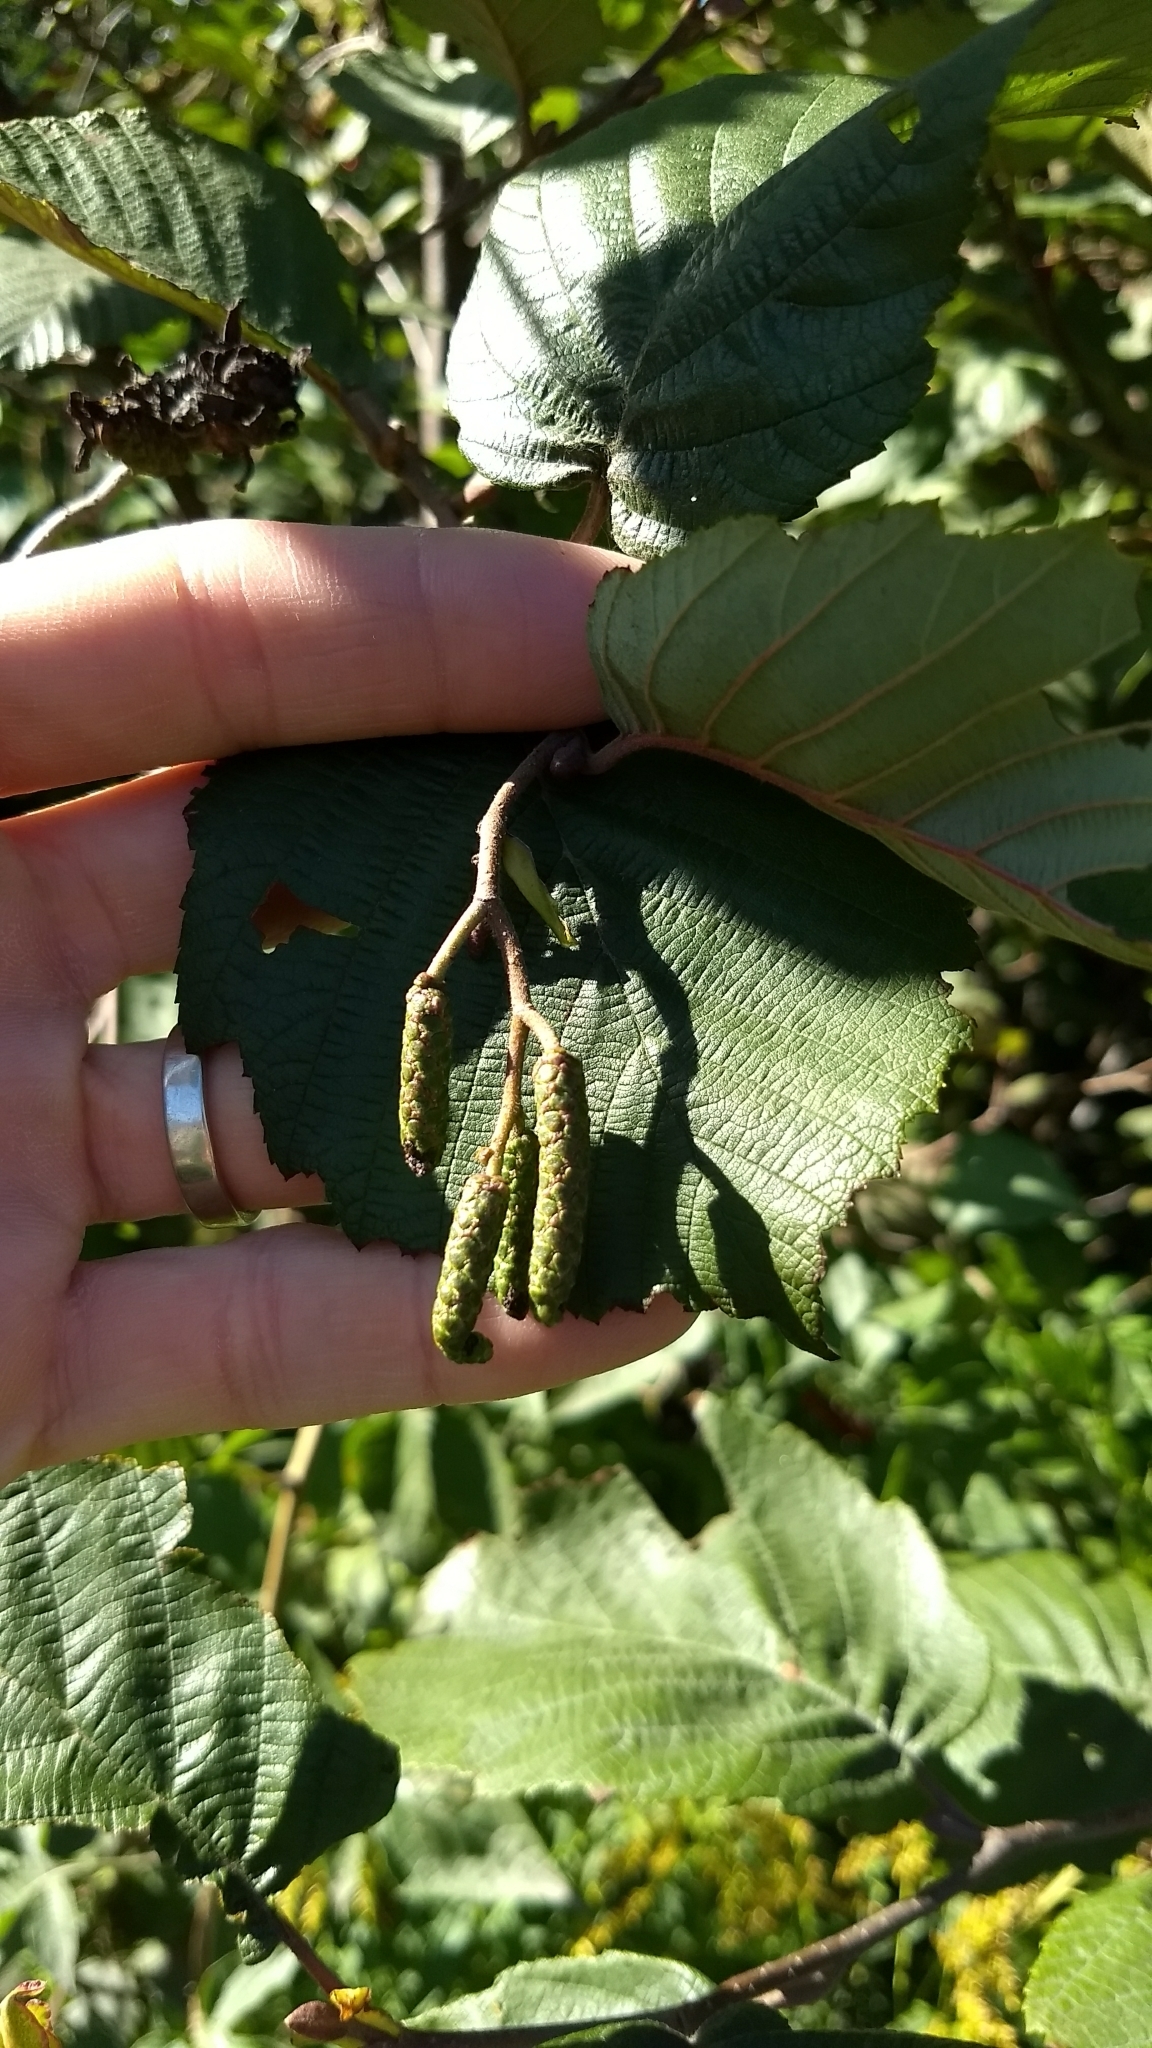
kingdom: Plantae
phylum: Tracheophyta
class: Magnoliopsida
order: Fagales
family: Betulaceae
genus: Alnus
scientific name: Alnus incana
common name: Grey alder
